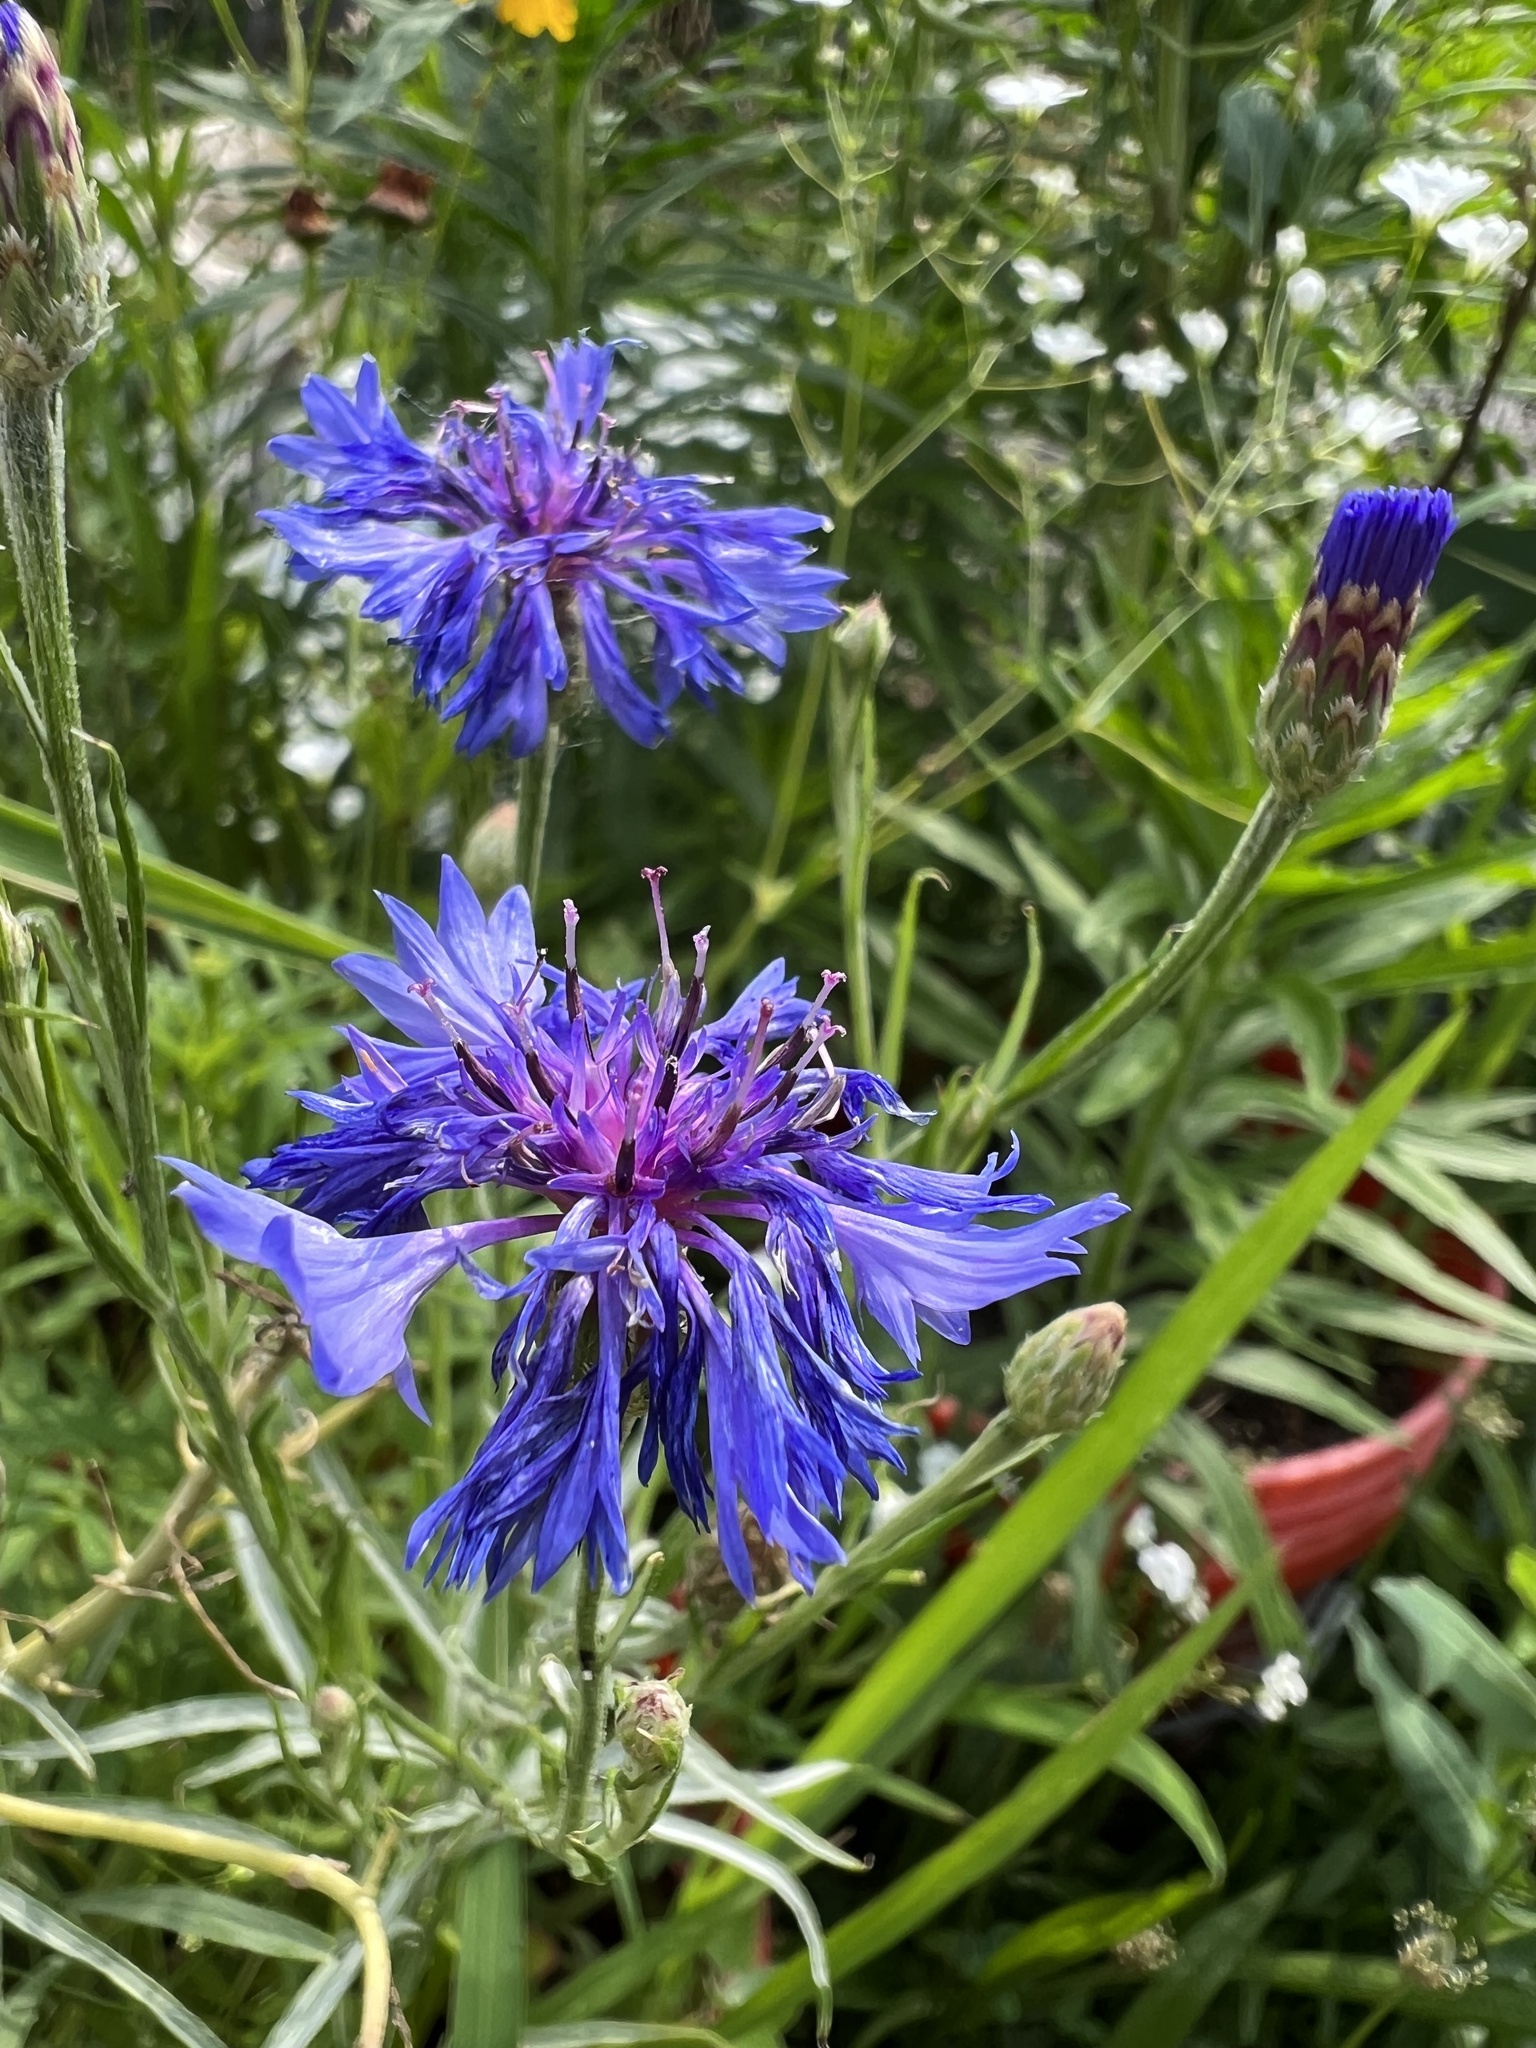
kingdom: Plantae
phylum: Tracheophyta
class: Magnoliopsida
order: Asterales
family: Asteraceae
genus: Centaurea
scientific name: Centaurea cyanus
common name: Cornflower
